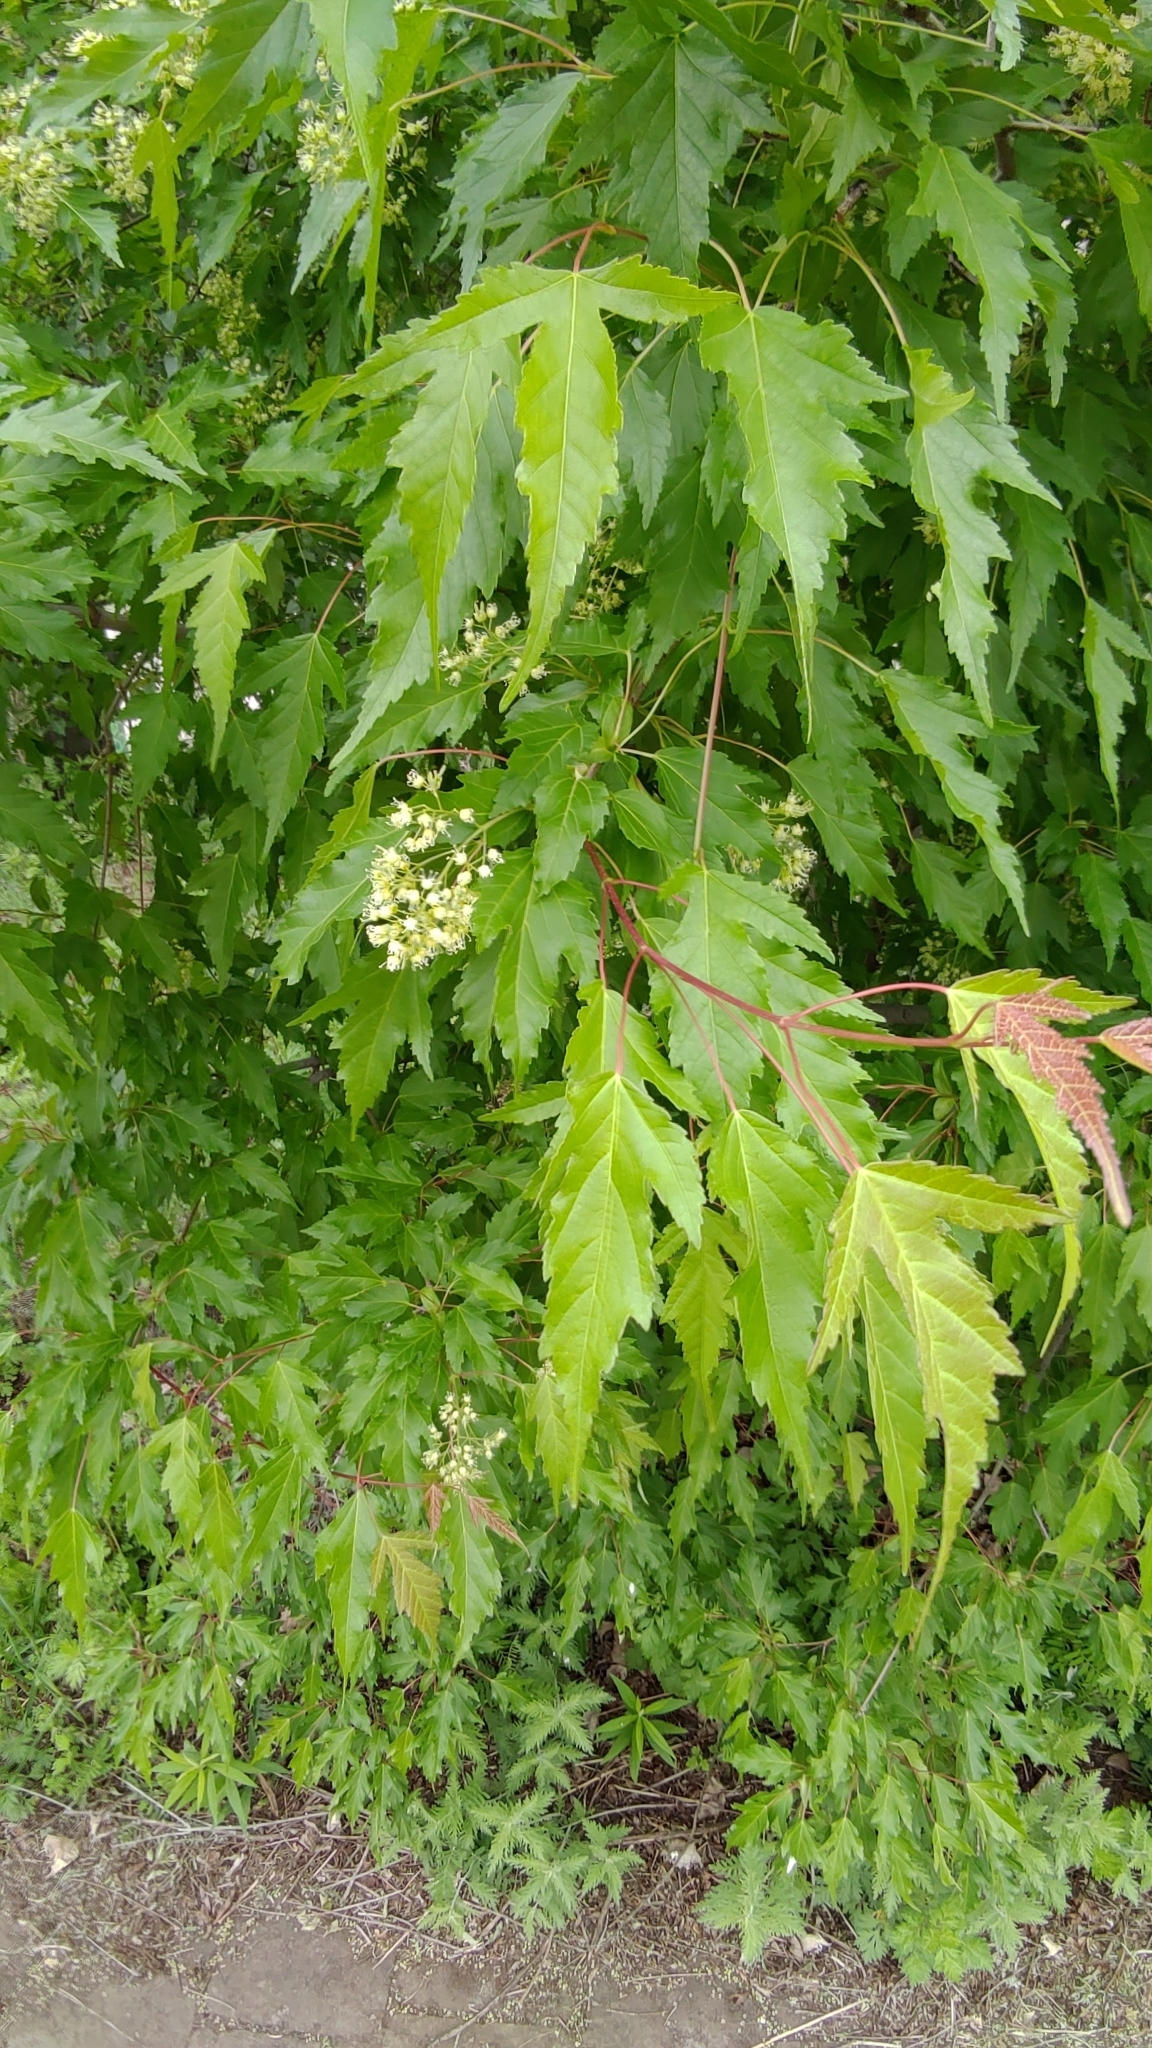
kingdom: Plantae
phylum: Tracheophyta
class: Magnoliopsida
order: Sapindales
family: Sapindaceae
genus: Acer
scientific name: Acer tataricum
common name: Tartar maple
